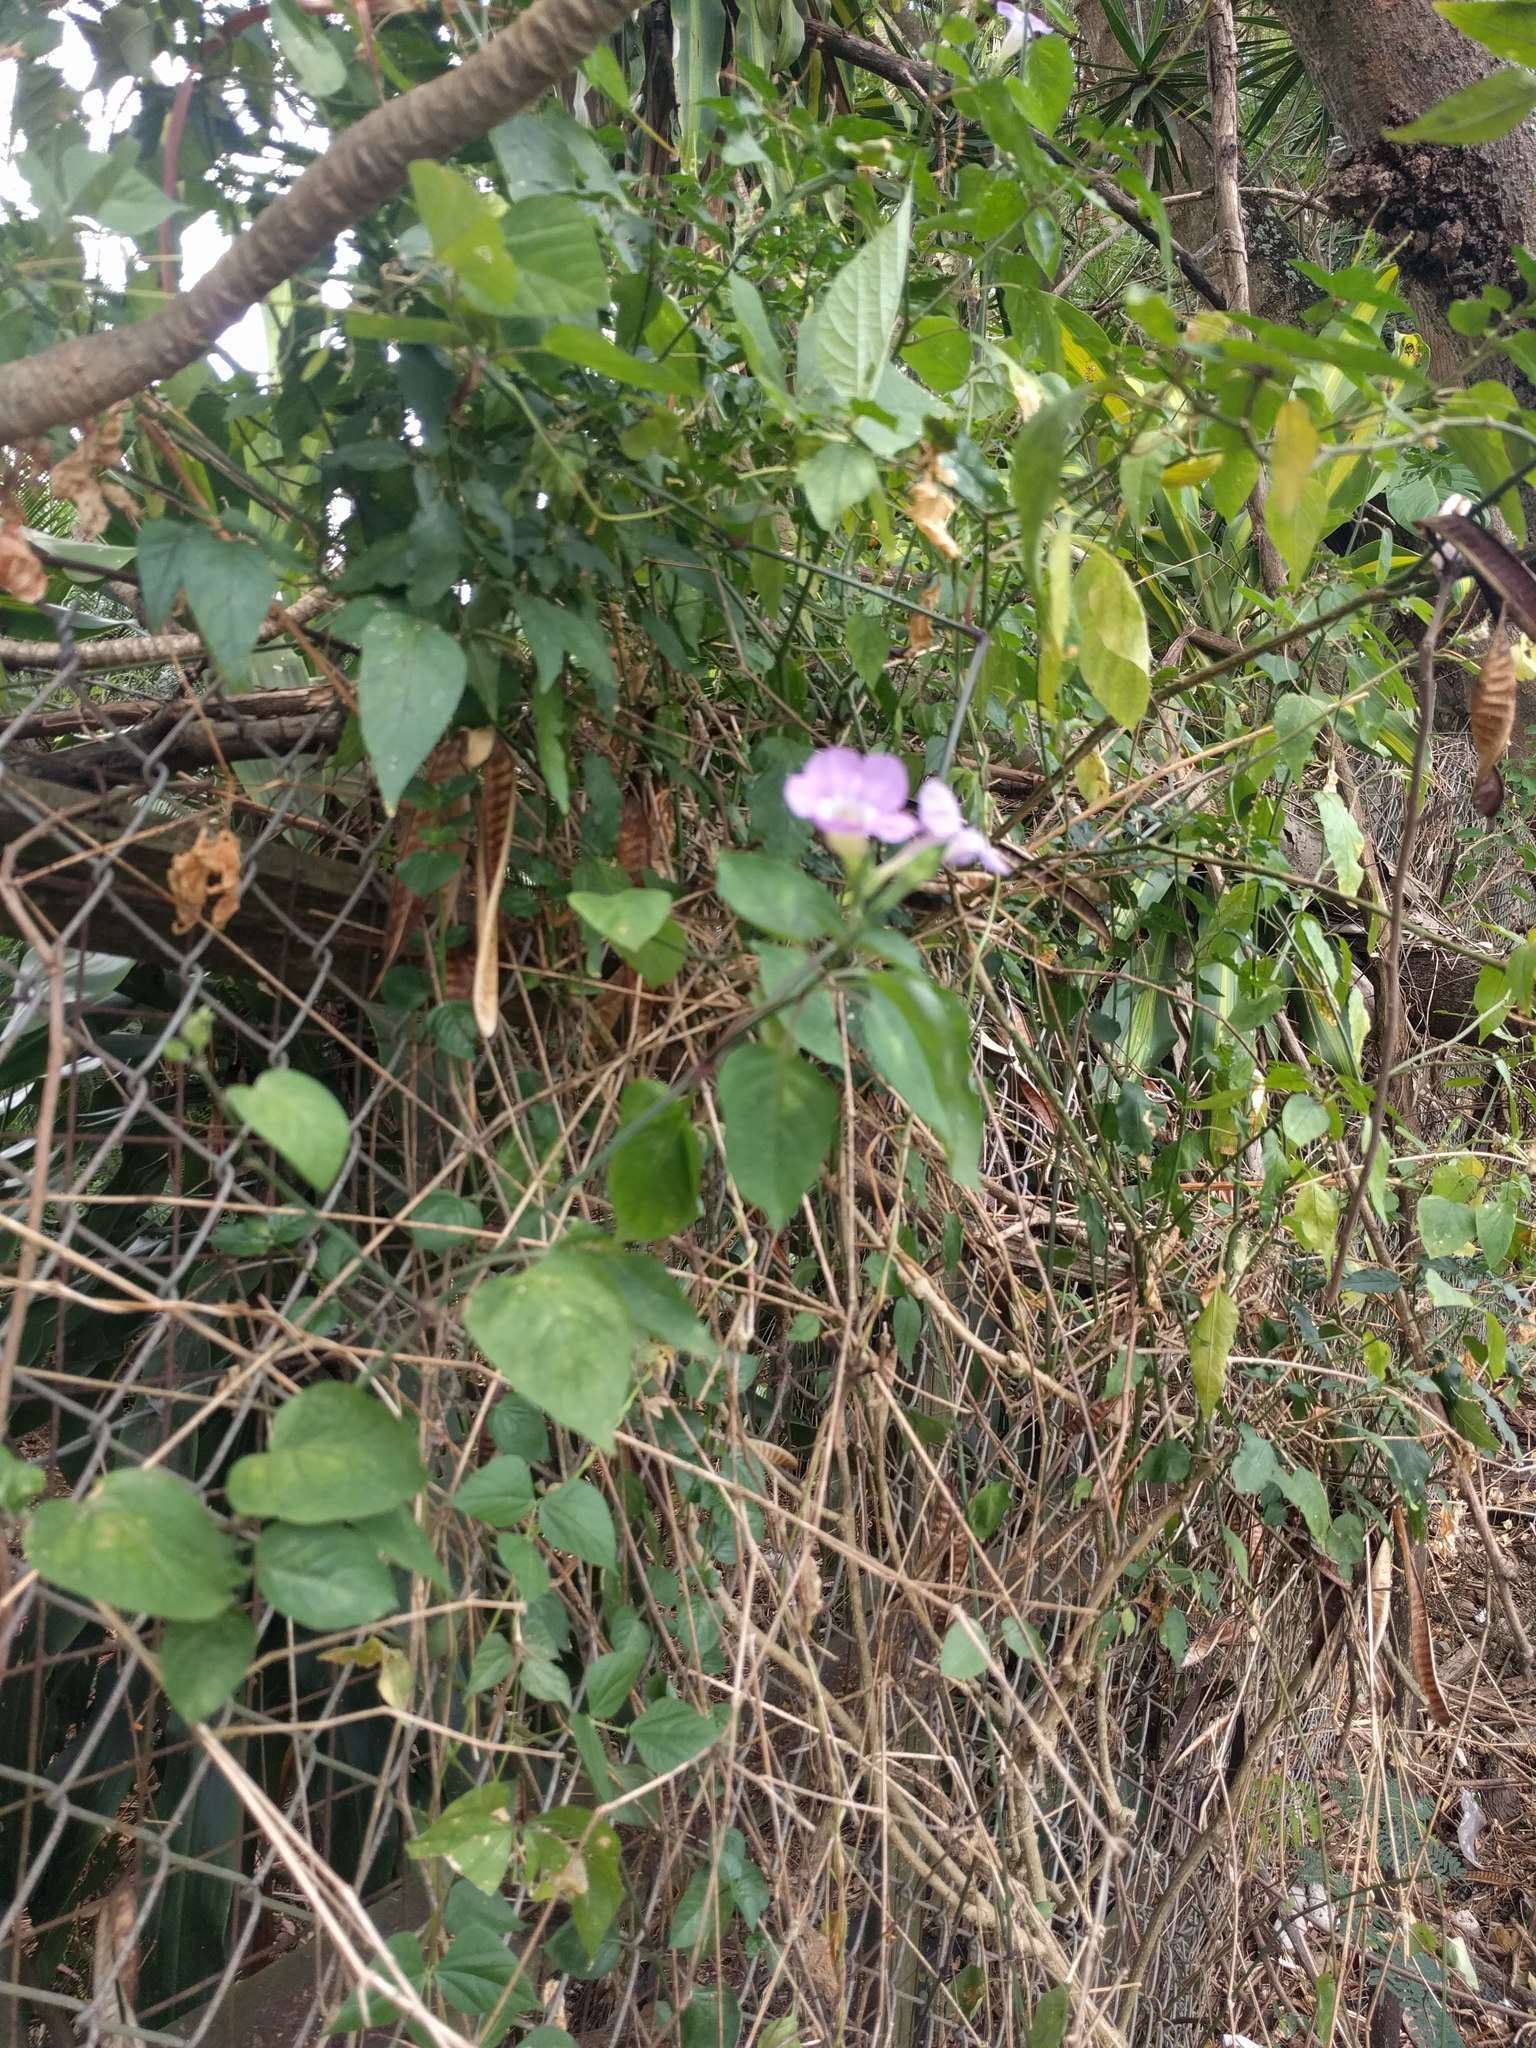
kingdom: Plantae
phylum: Tracheophyta
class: Magnoliopsida
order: Lamiales
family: Acanthaceae
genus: Asystasia
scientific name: Asystasia gangetica
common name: Chinese violet
